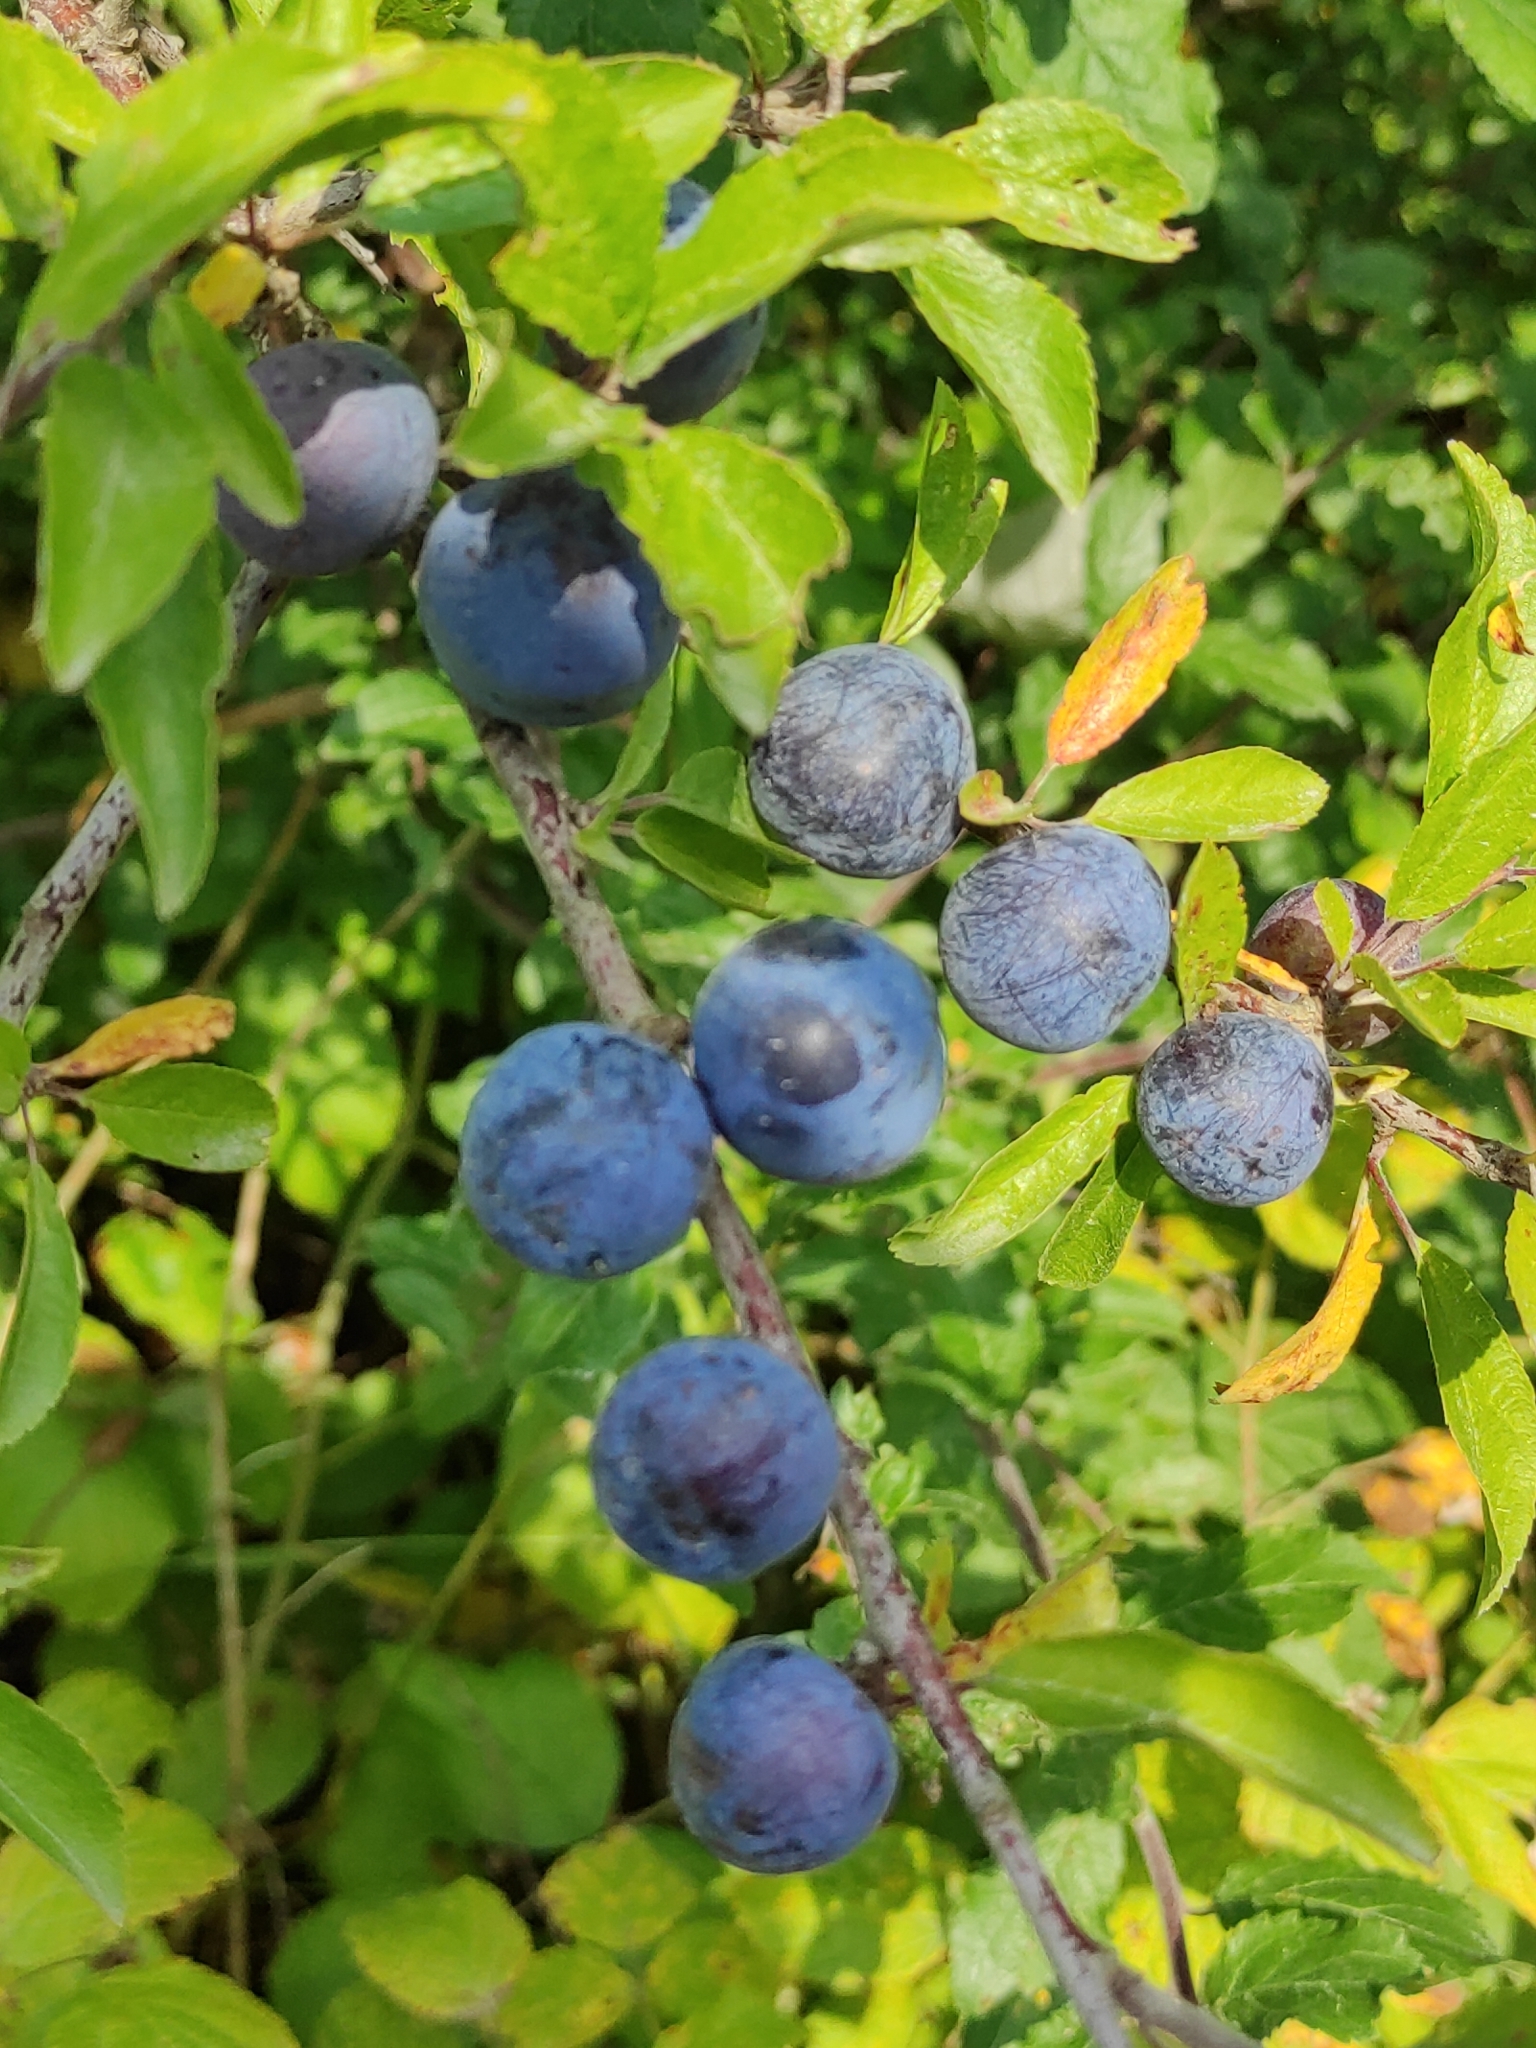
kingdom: Plantae
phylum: Tracheophyta
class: Magnoliopsida
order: Rosales
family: Rosaceae
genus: Prunus
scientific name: Prunus spinosa
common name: Blackthorn
